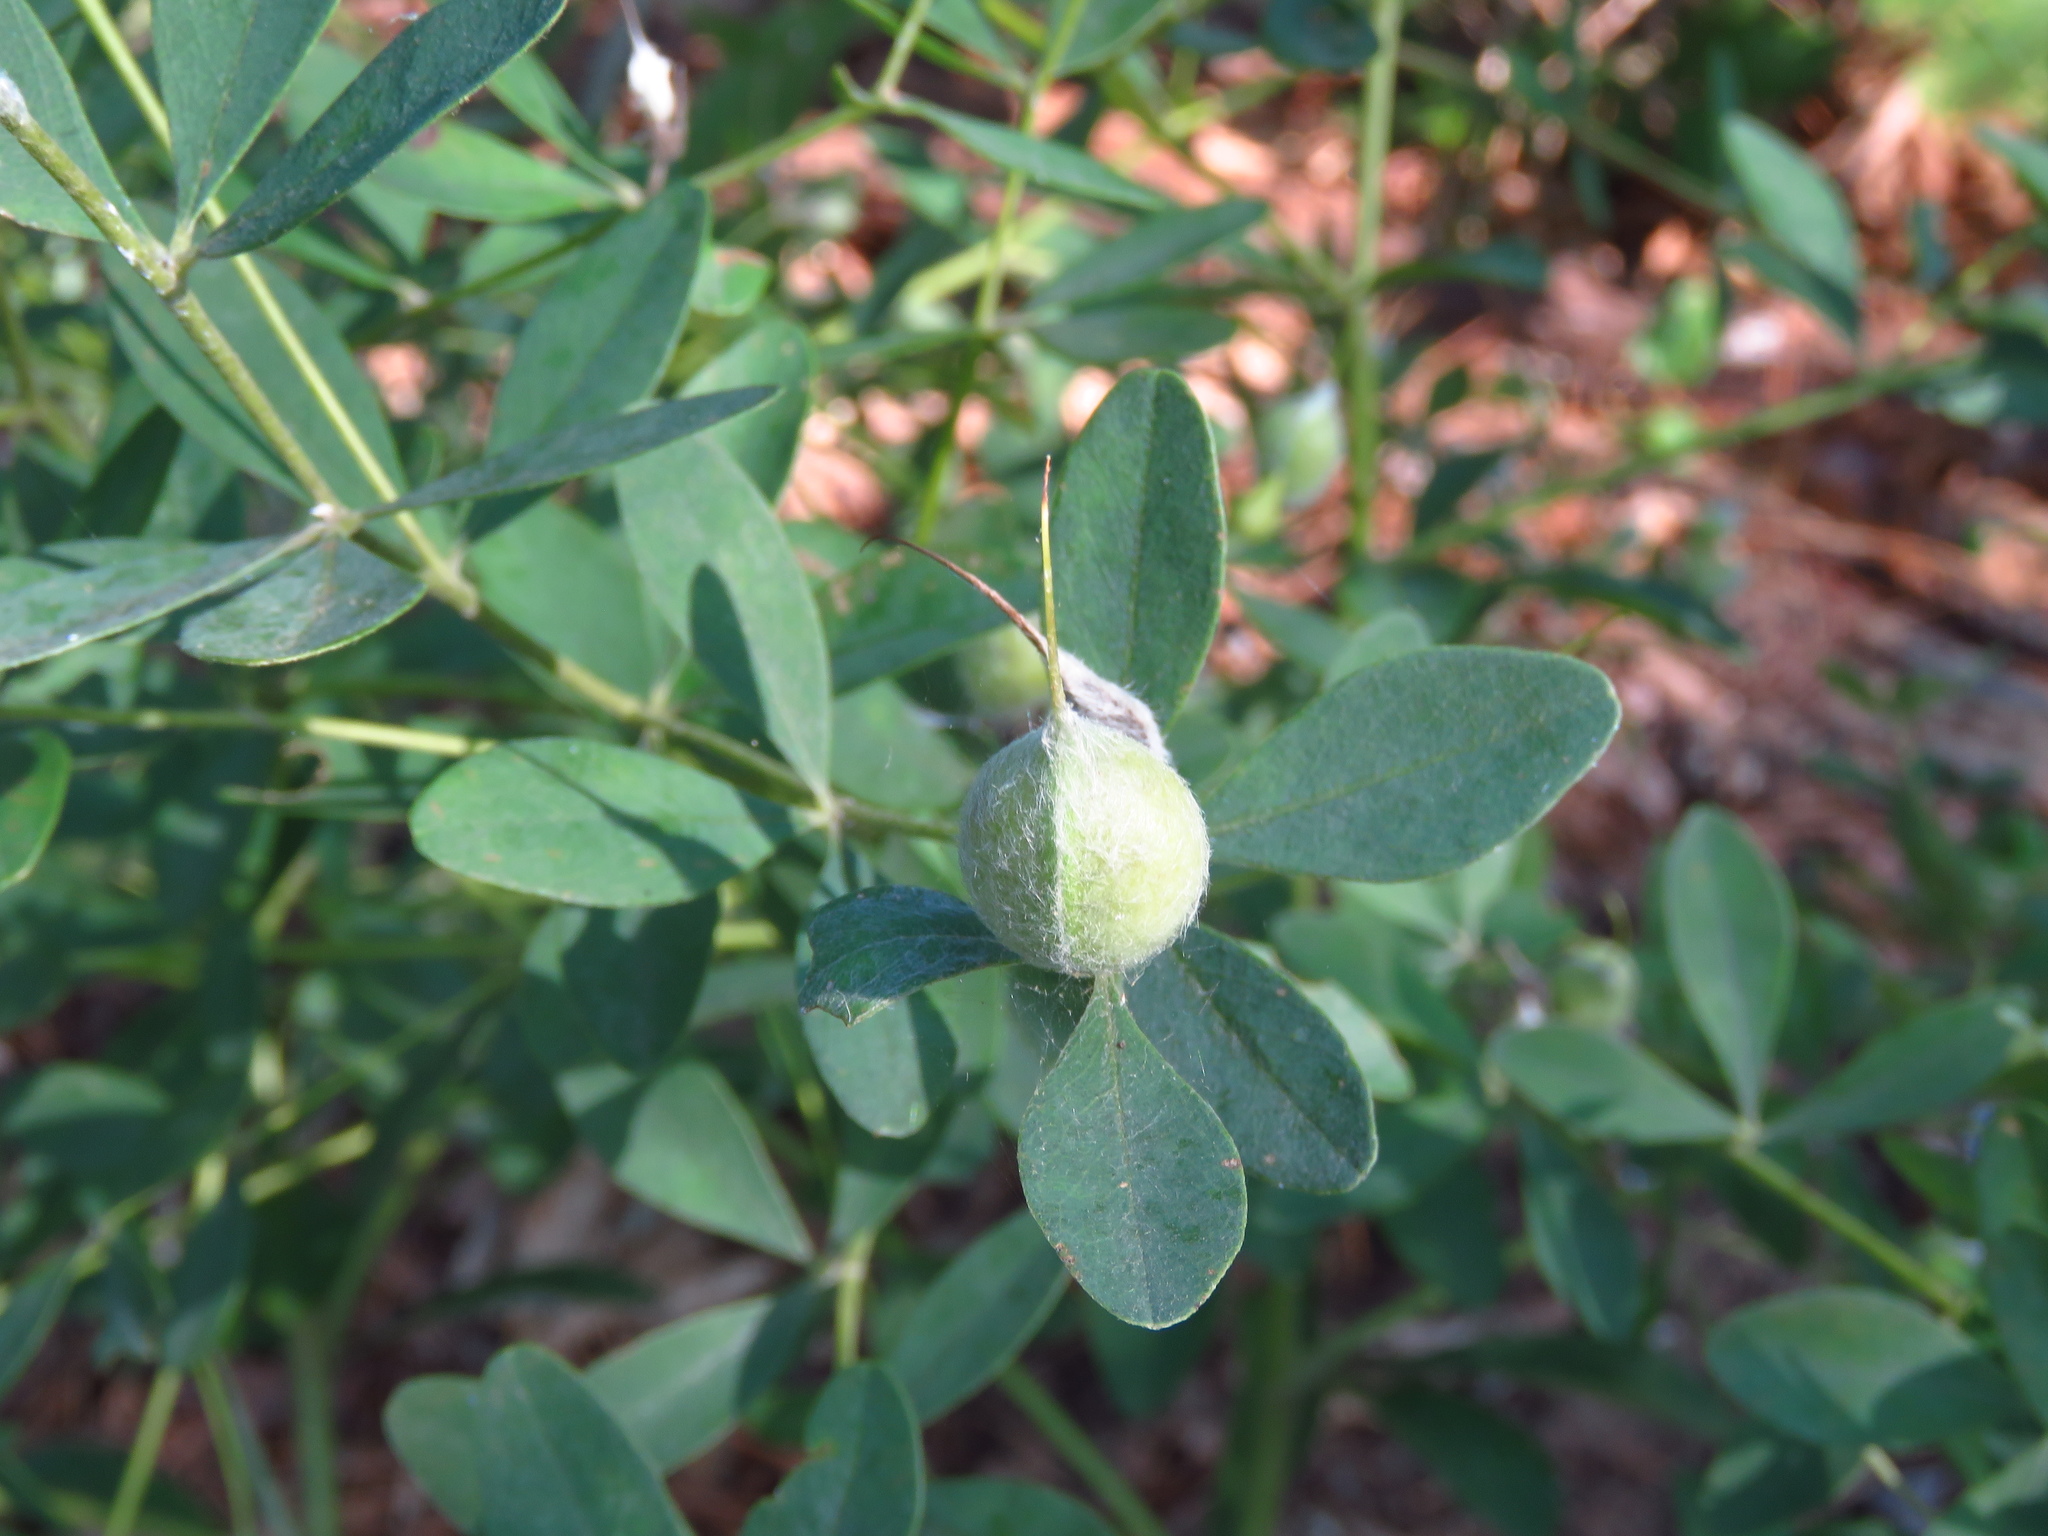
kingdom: Plantae
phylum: Tracheophyta
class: Magnoliopsida
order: Fabales
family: Fabaceae
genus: Baptisia
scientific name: Baptisia nuttalliana
